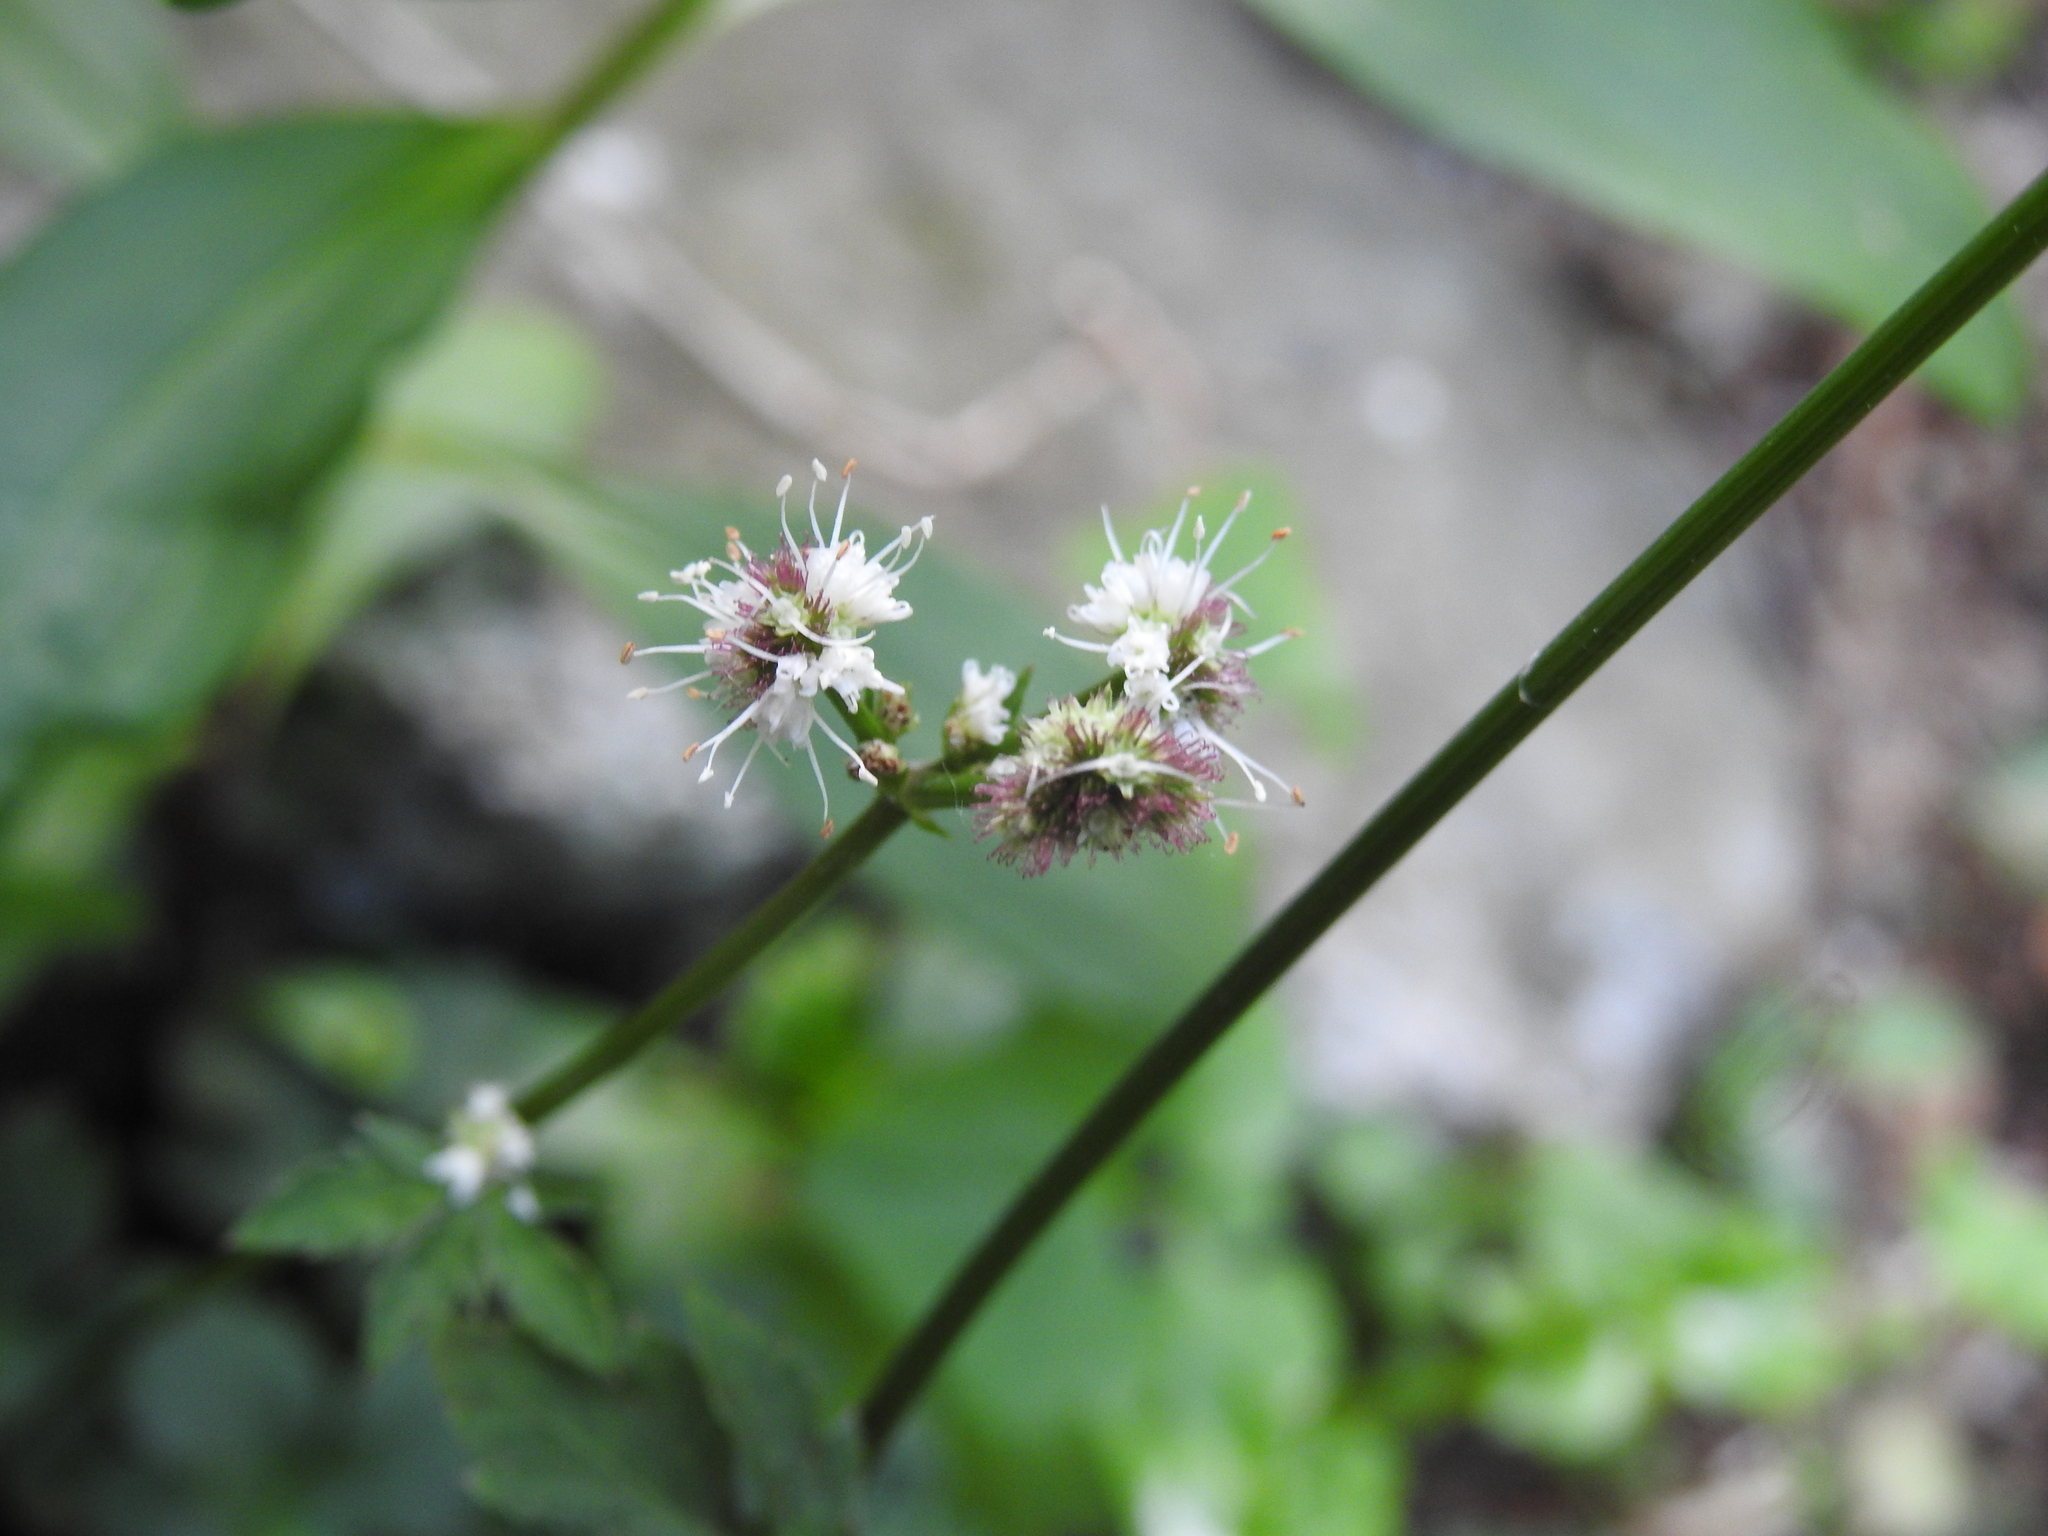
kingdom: Plantae
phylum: Tracheophyta
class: Magnoliopsida
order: Apiales
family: Apiaceae
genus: Sanicula
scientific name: Sanicula europaea
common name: Sanicle
